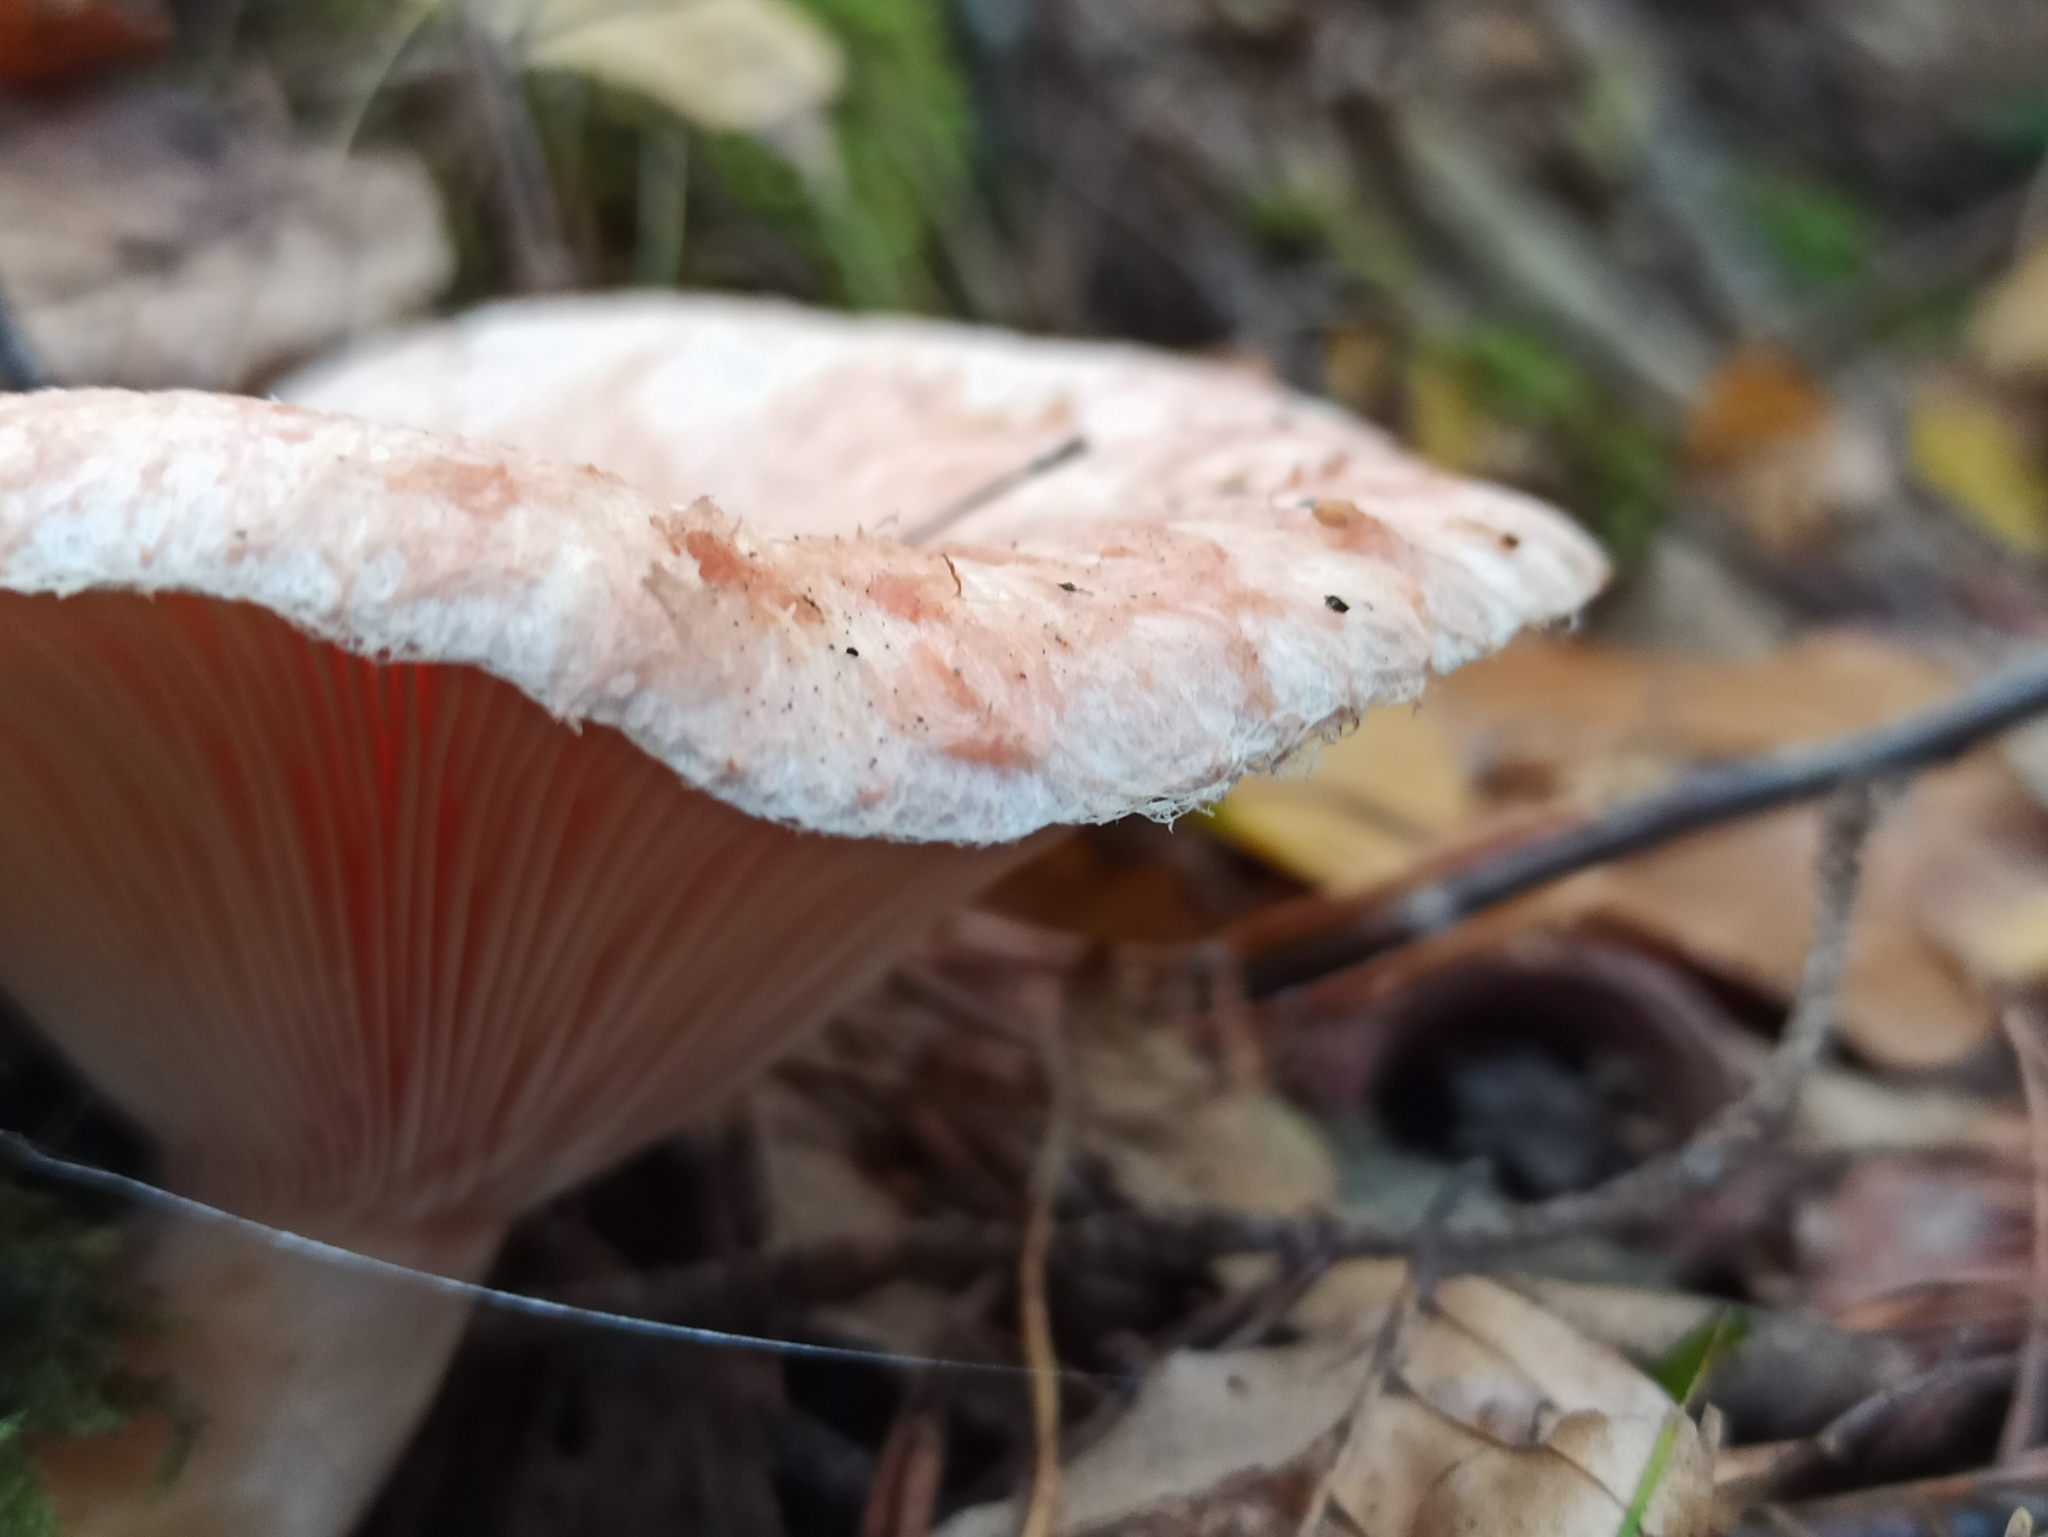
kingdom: Fungi
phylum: Basidiomycota
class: Agaricomycetes
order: Russulales
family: Russulaceae
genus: Lactarius
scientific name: Lactarius torminosus
